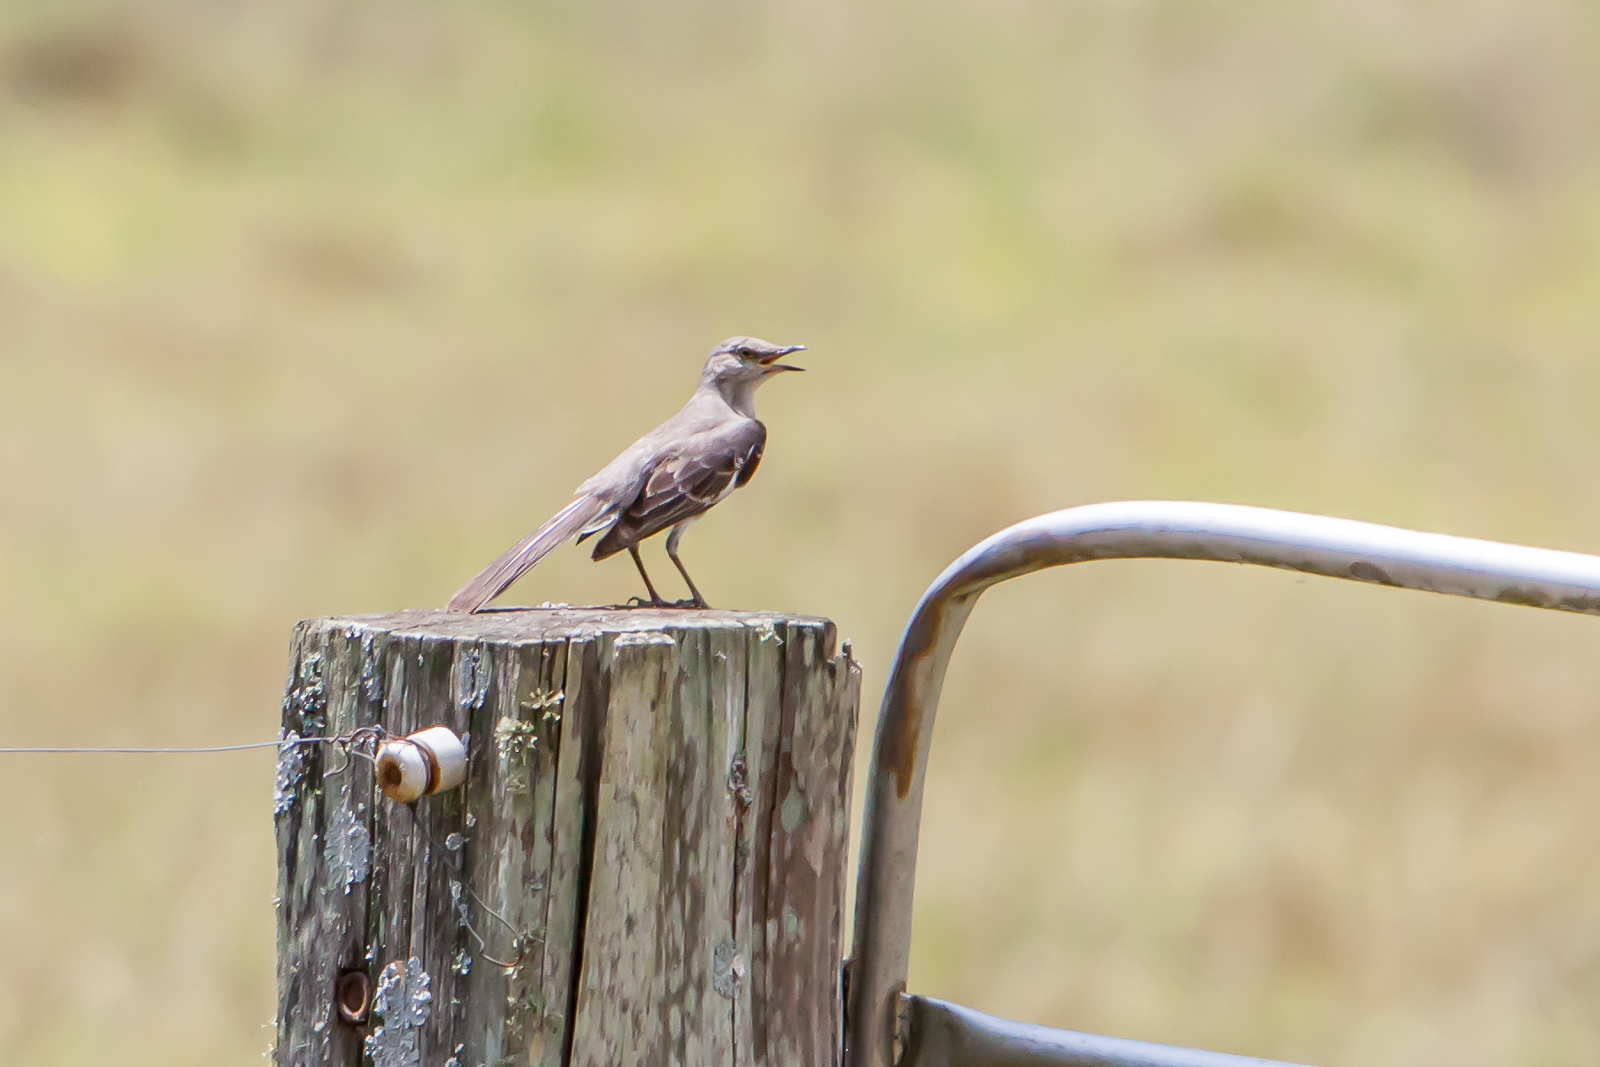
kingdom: Animalia
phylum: Chordata
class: Aves
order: Passeriformes
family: Mimidae
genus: Mimus
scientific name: Mimus polyglottos
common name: Northern mockingbird
